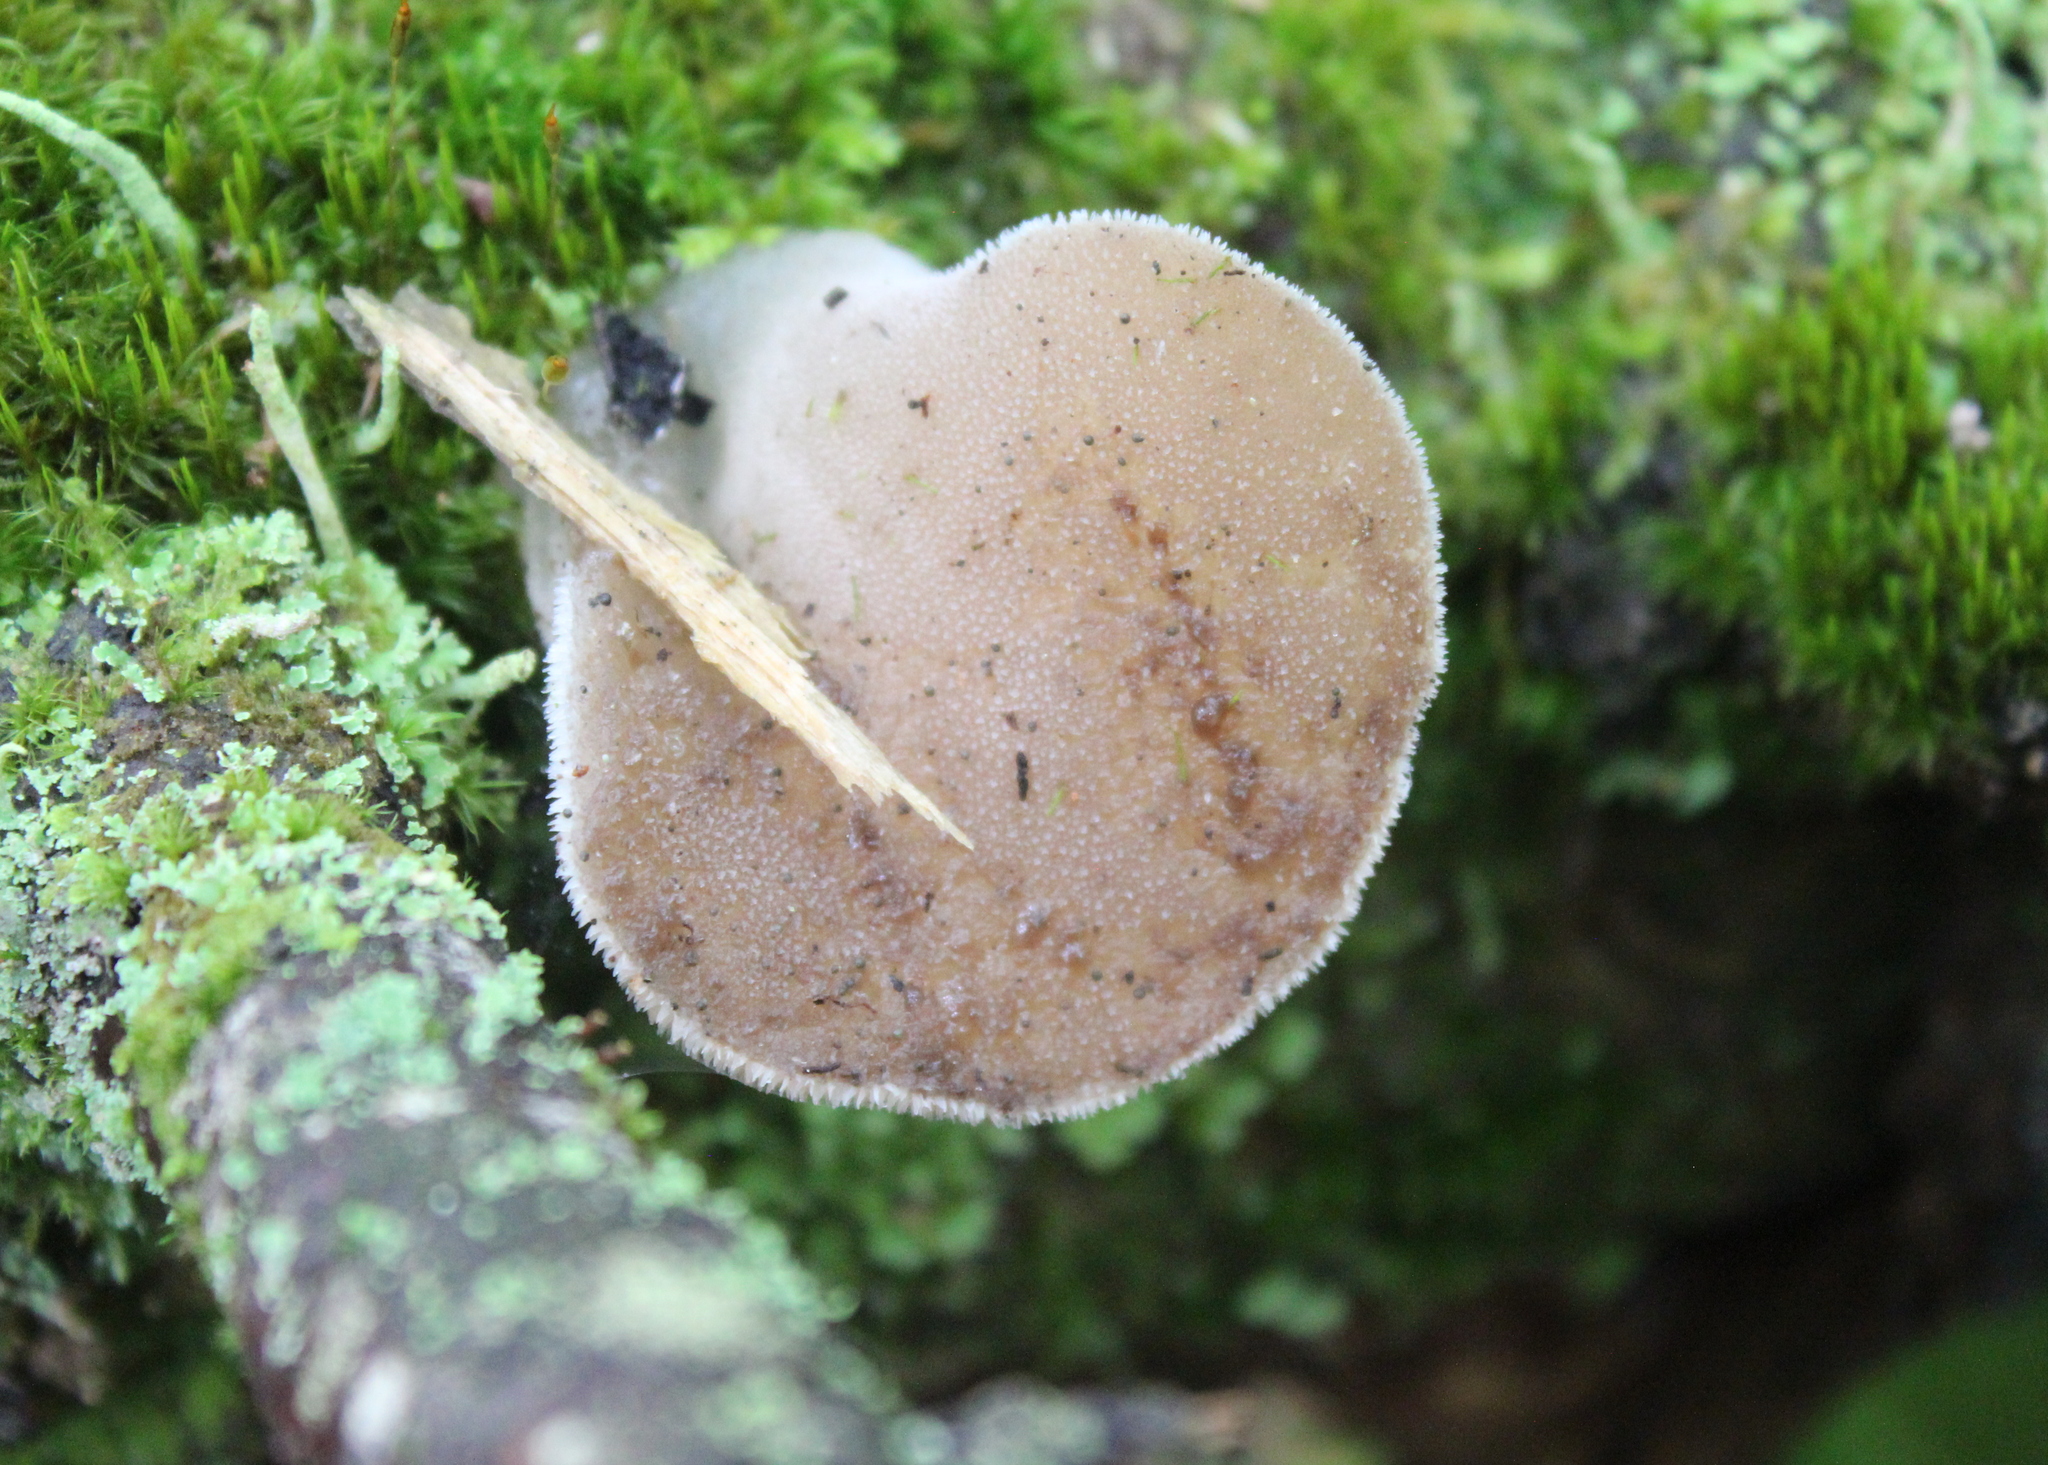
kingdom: Fungi
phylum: Basidiomycota
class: Agaricomycetes
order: Auriculariales
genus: Pseudohydnum
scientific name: Pseudohydnum gelatinosum
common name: Jelly tongue
